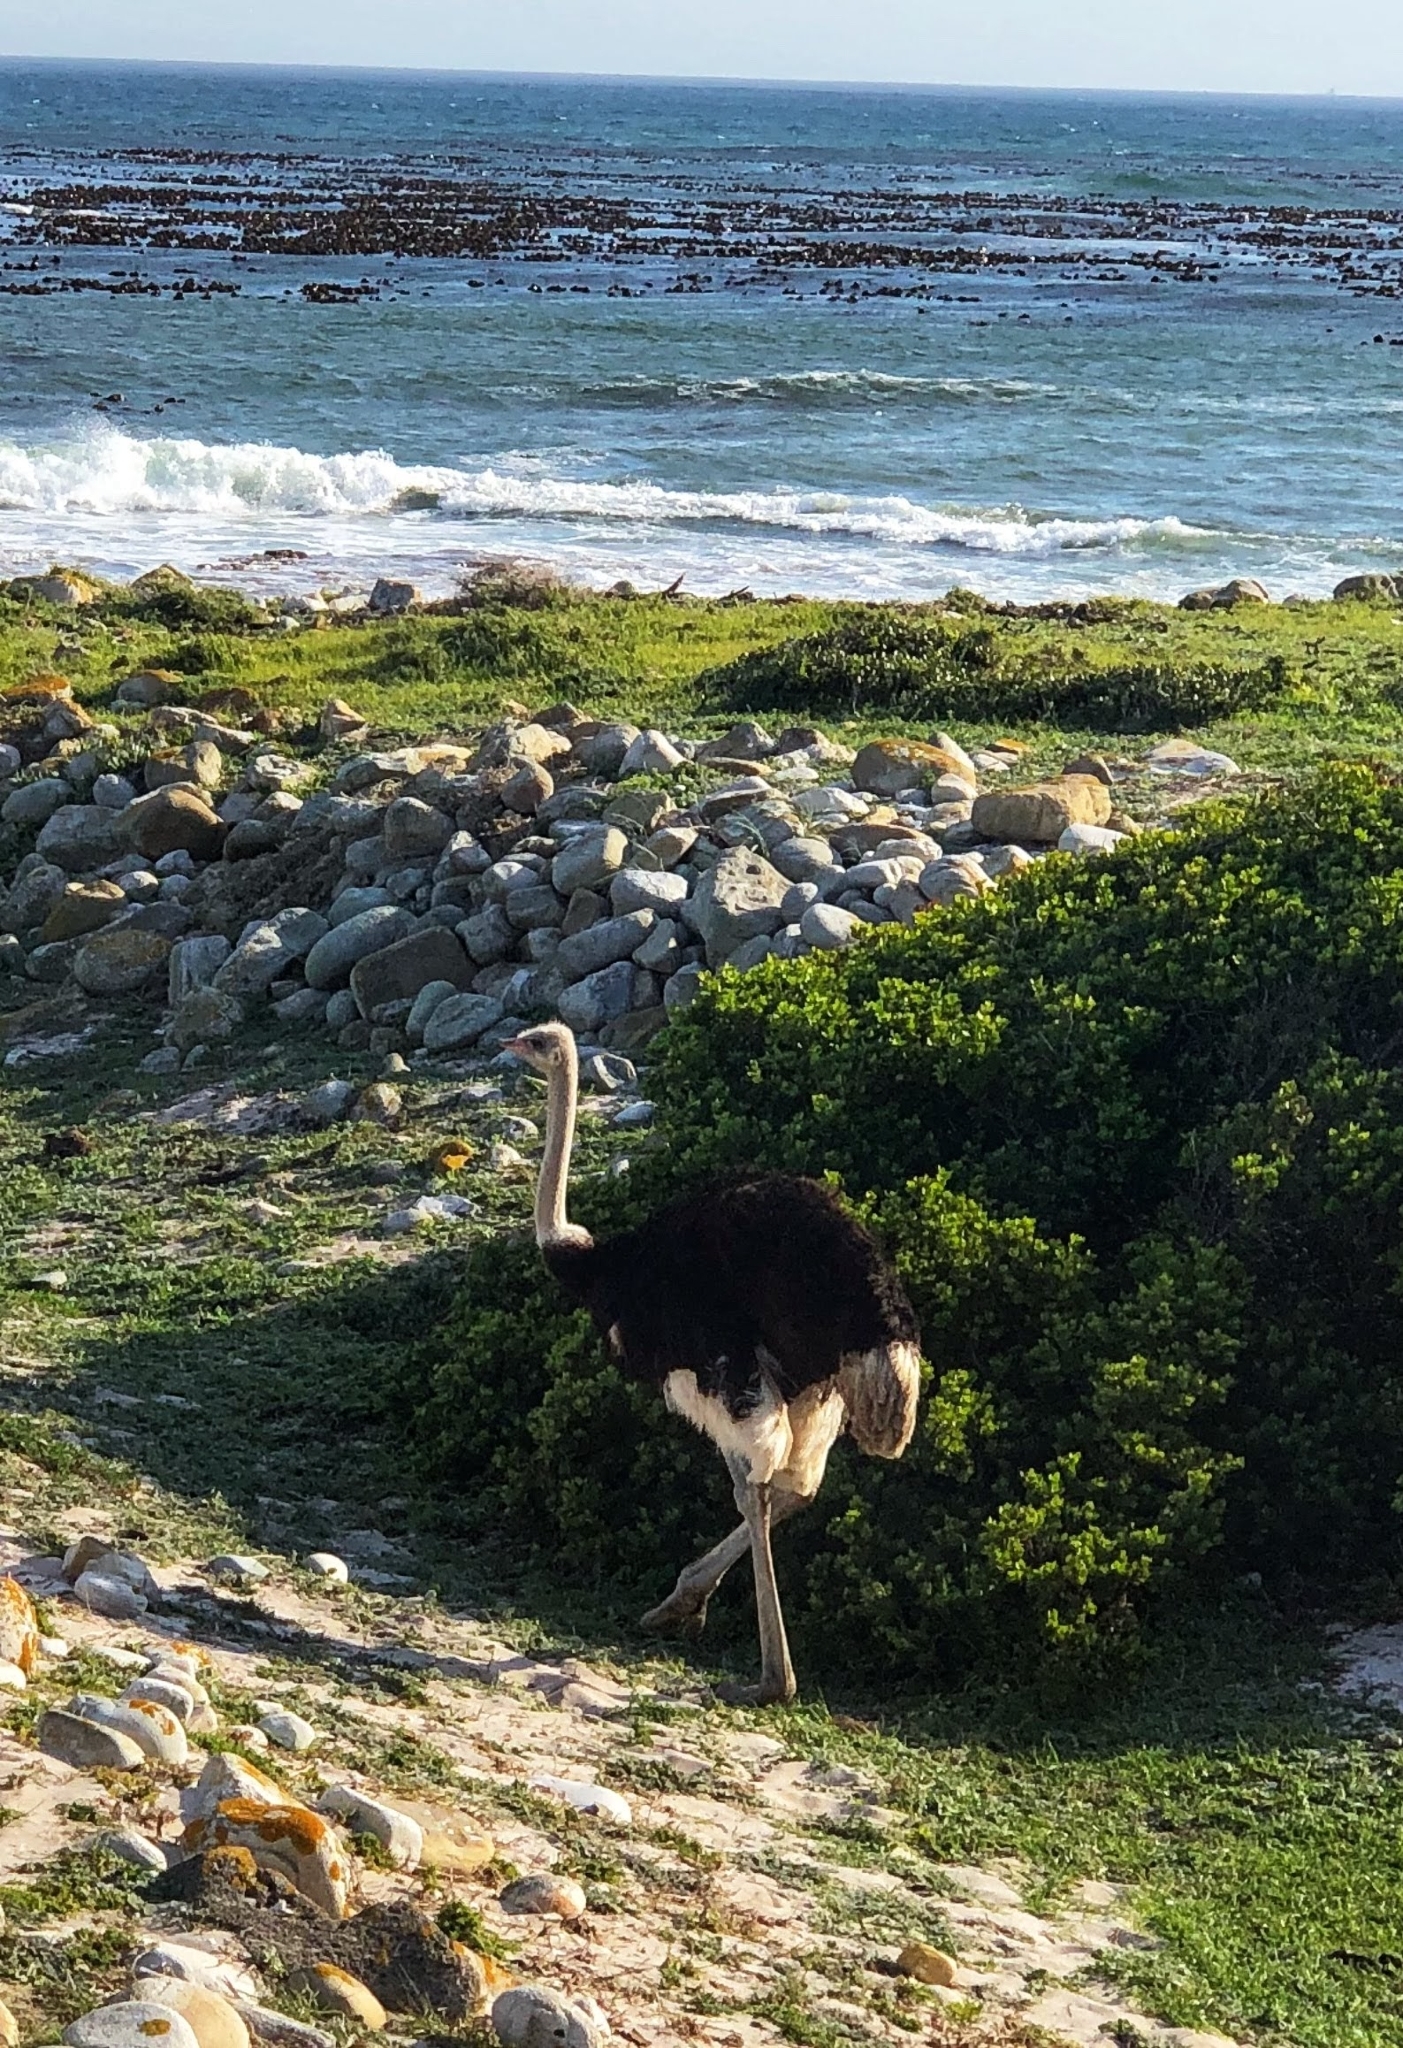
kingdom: Animalia
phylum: Chordata
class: Aves
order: Struthioniformes
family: Struthionidae
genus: Struthio
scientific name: Struthio camelus
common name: Common ostrich
